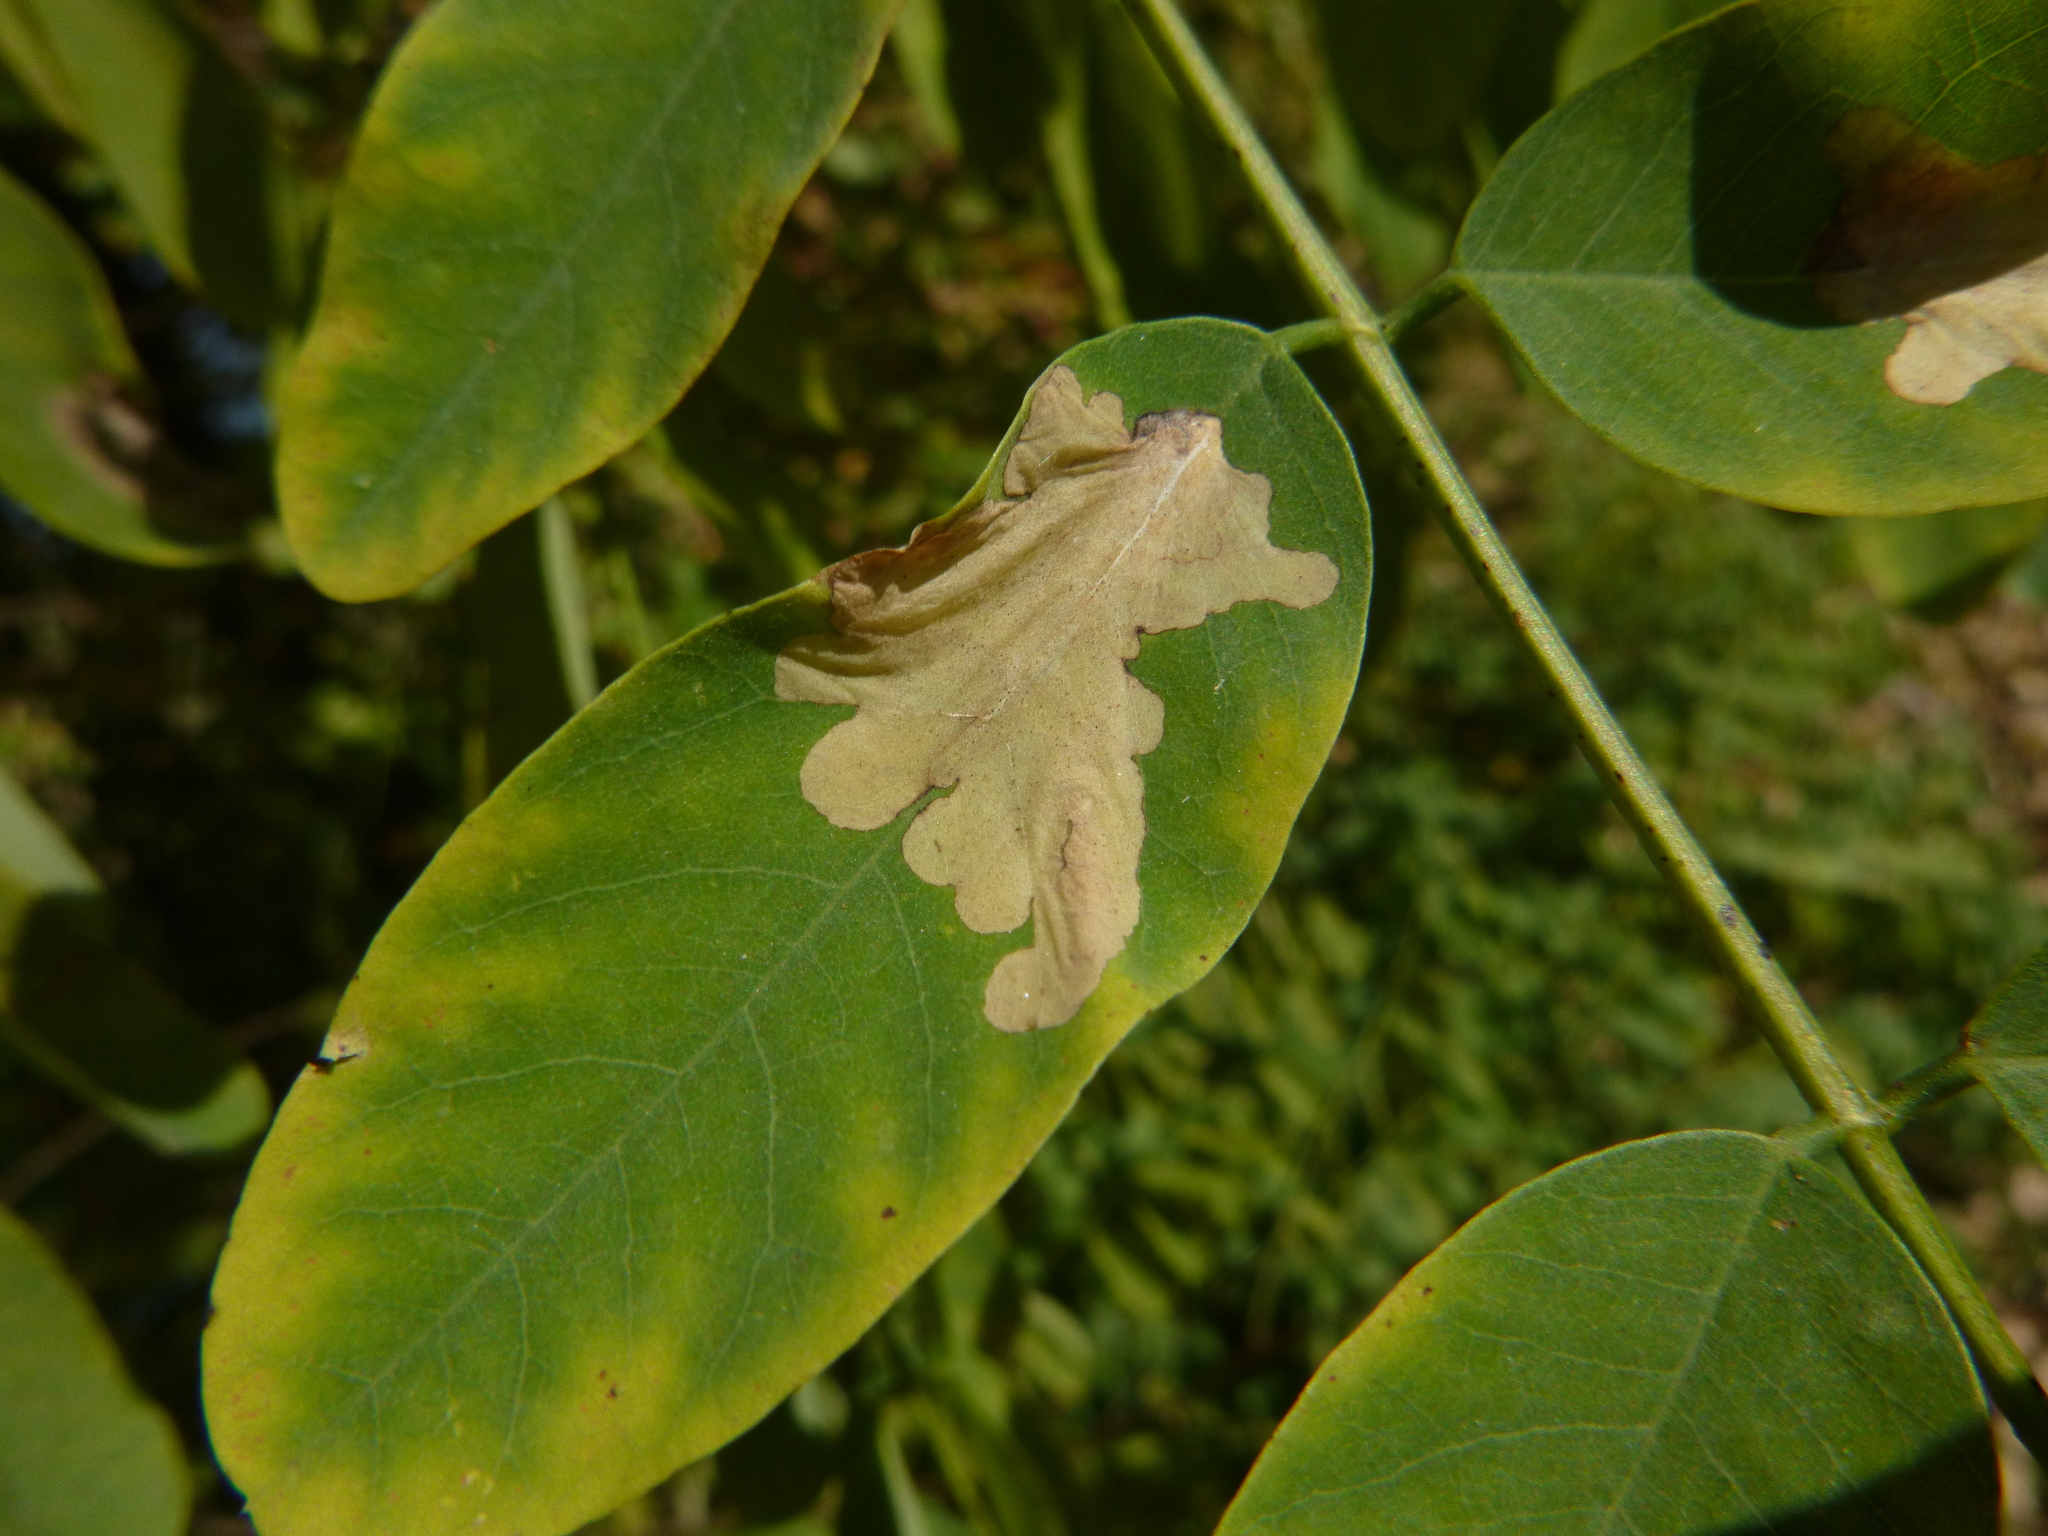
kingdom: Animalia
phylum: Arthropoda
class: Insecta
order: Lepidoptera
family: Gracillariidae
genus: Parectopa
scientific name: Parectopa robiniella
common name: Locust digitate leafminer
